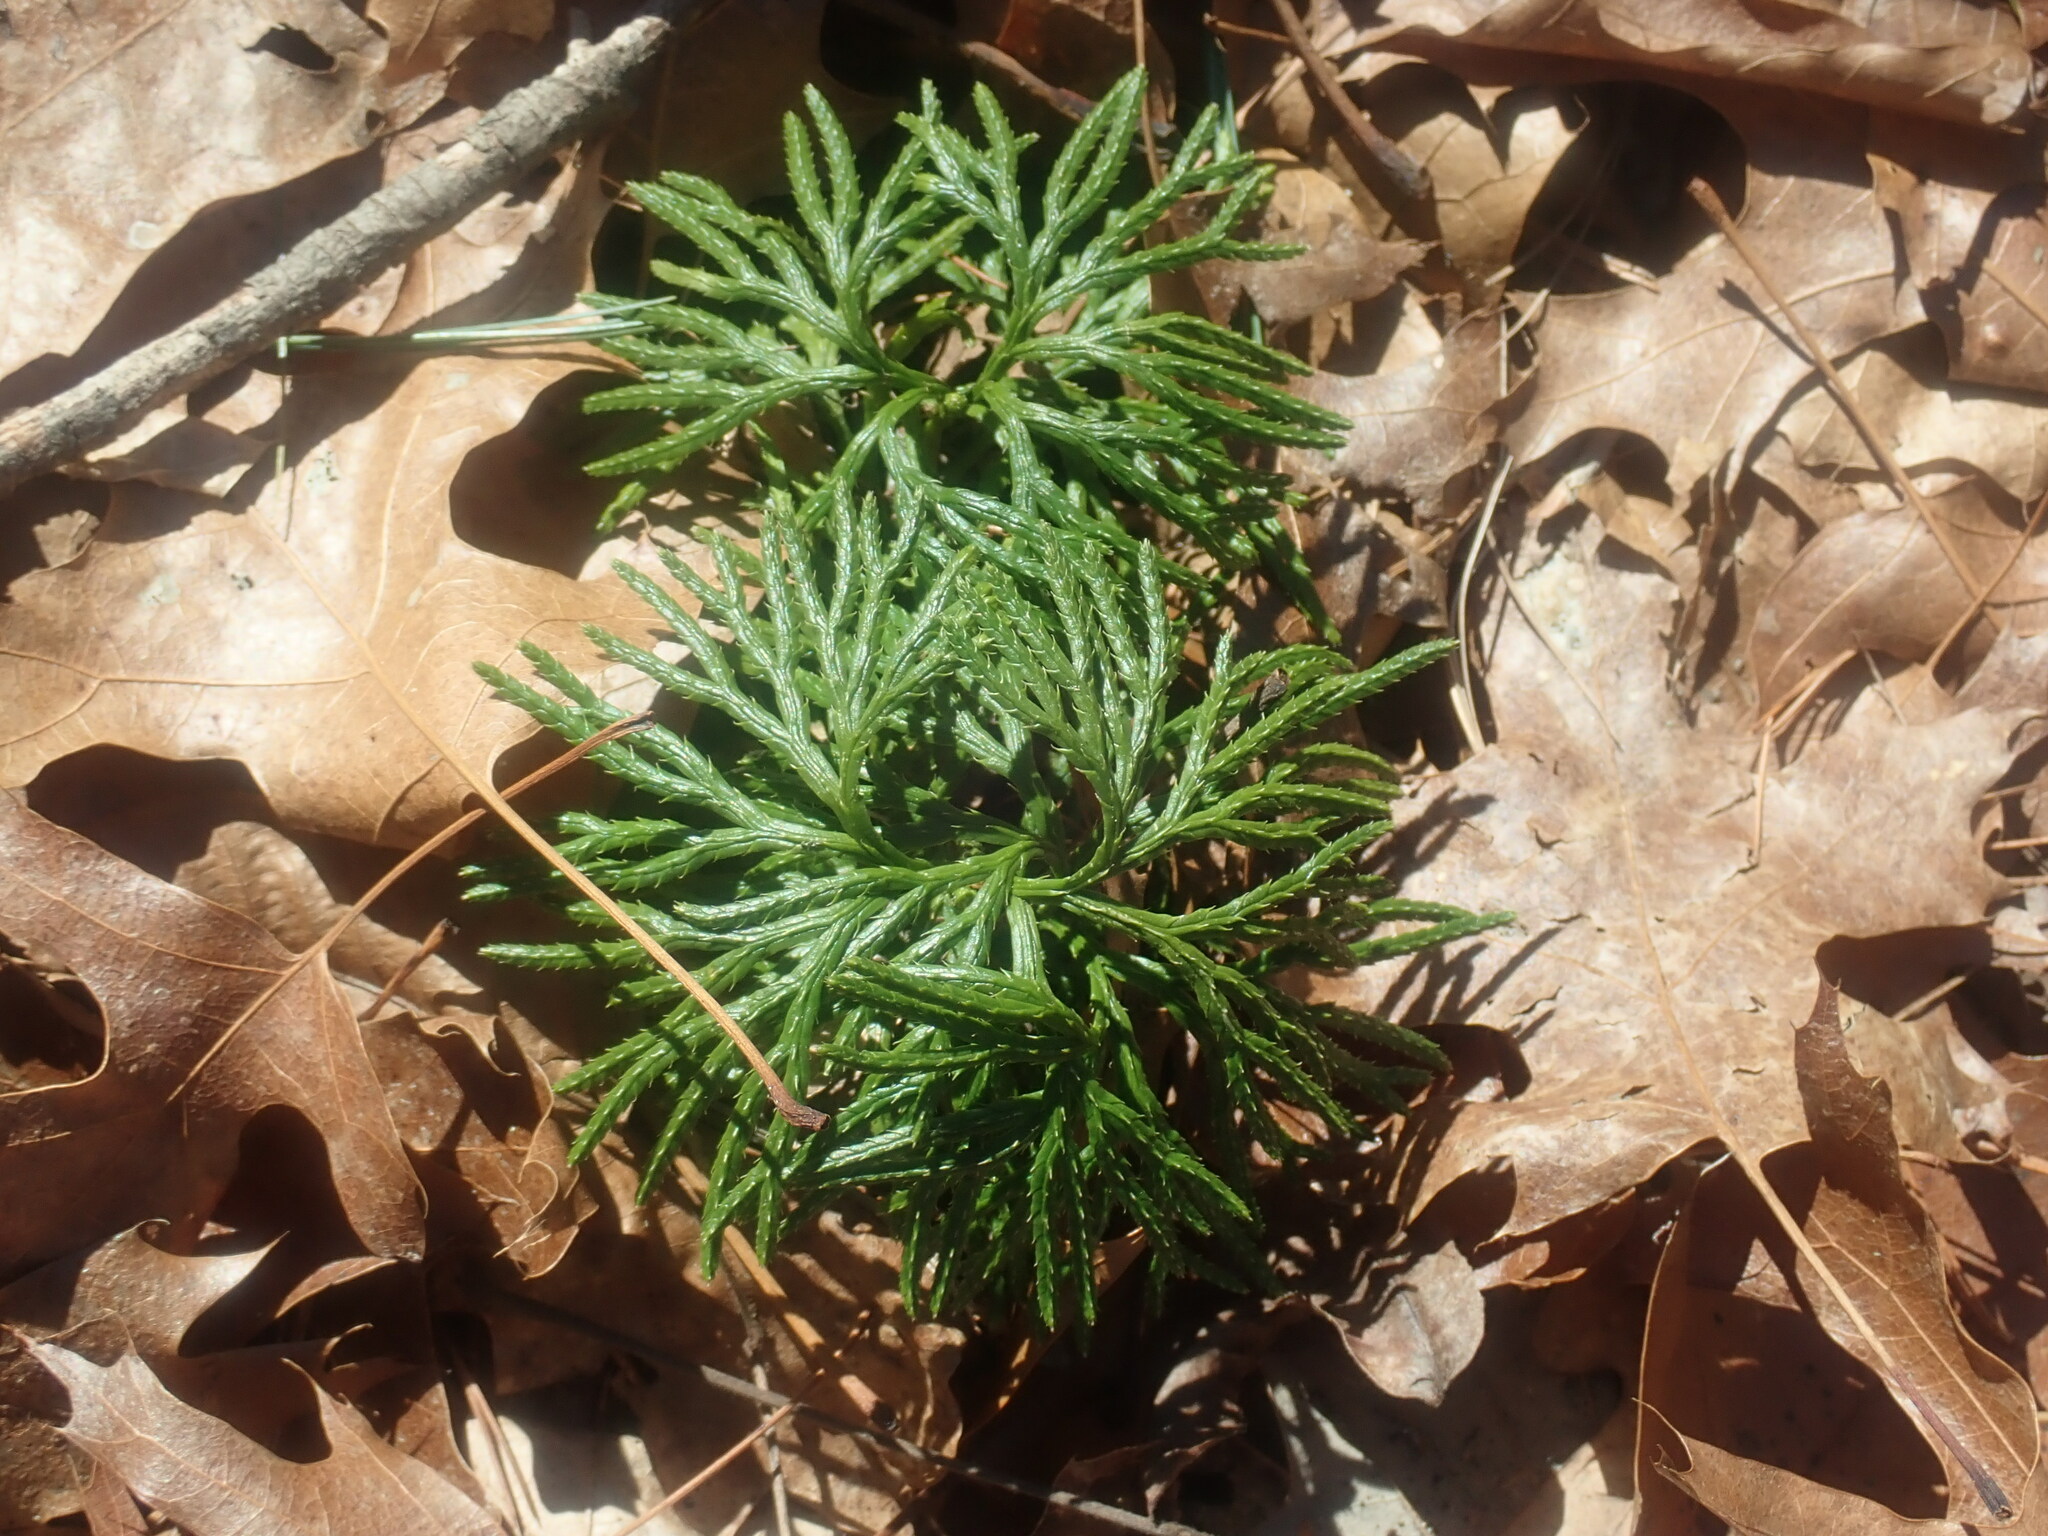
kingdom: Plantae
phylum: Tracheophyta
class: Lycopodiopsida
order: Lycopodiales
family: Lycopodiaceae
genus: Diphasiastrum
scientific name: Diphasiastrum digitatum
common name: Southern running-pine
